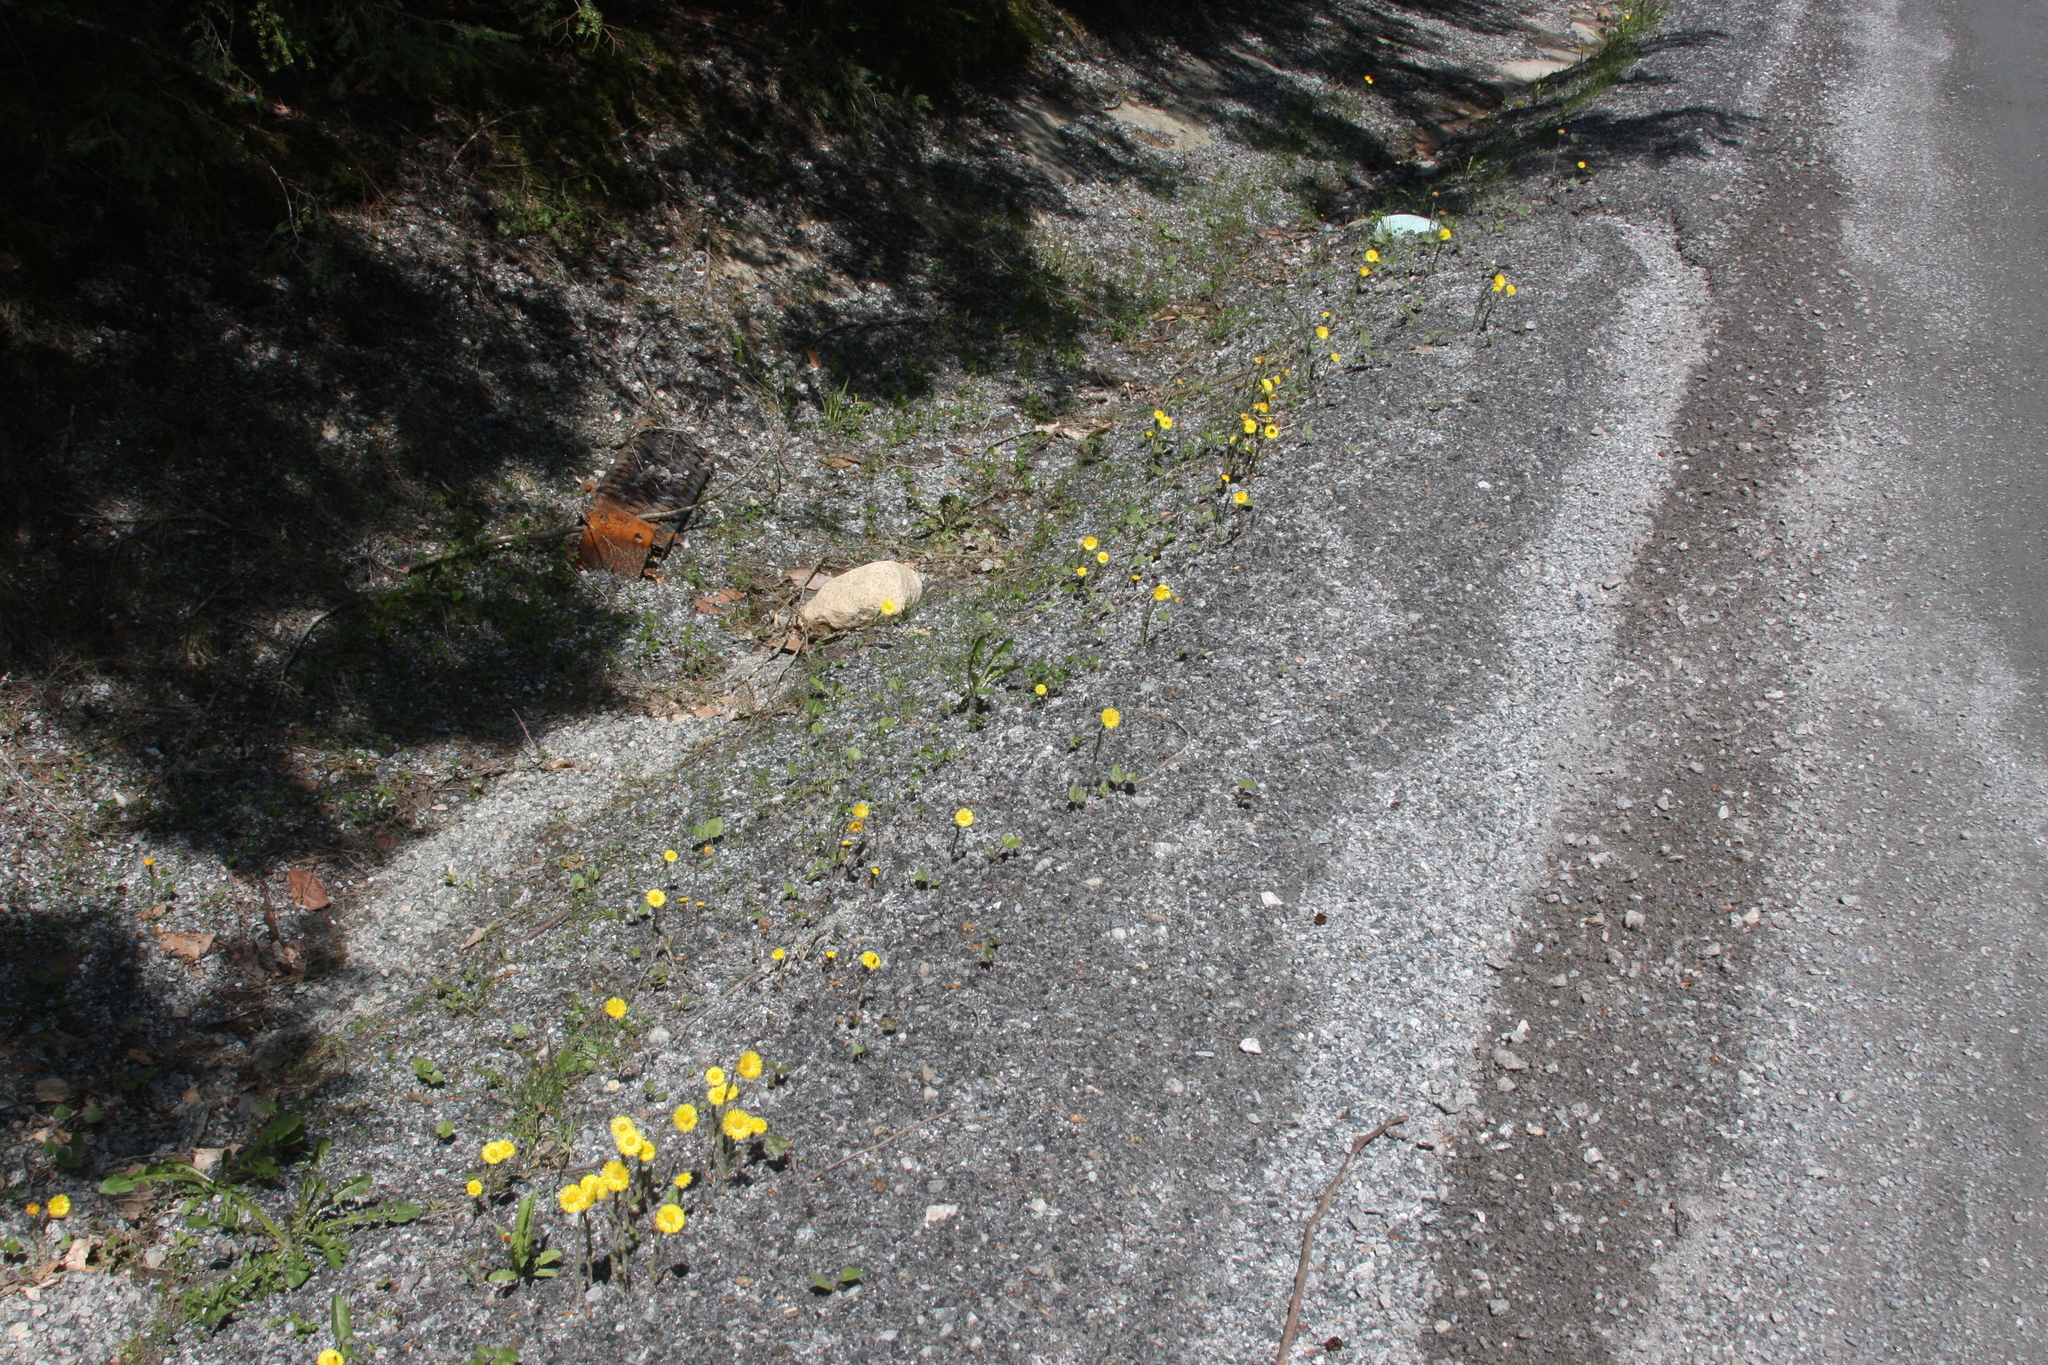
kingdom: Plantae
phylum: Tracheophyta
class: Magnoliopsida
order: Asterales
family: Asteraceae
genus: Tussilago
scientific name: Tussilago farfara
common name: Coltsfoot
